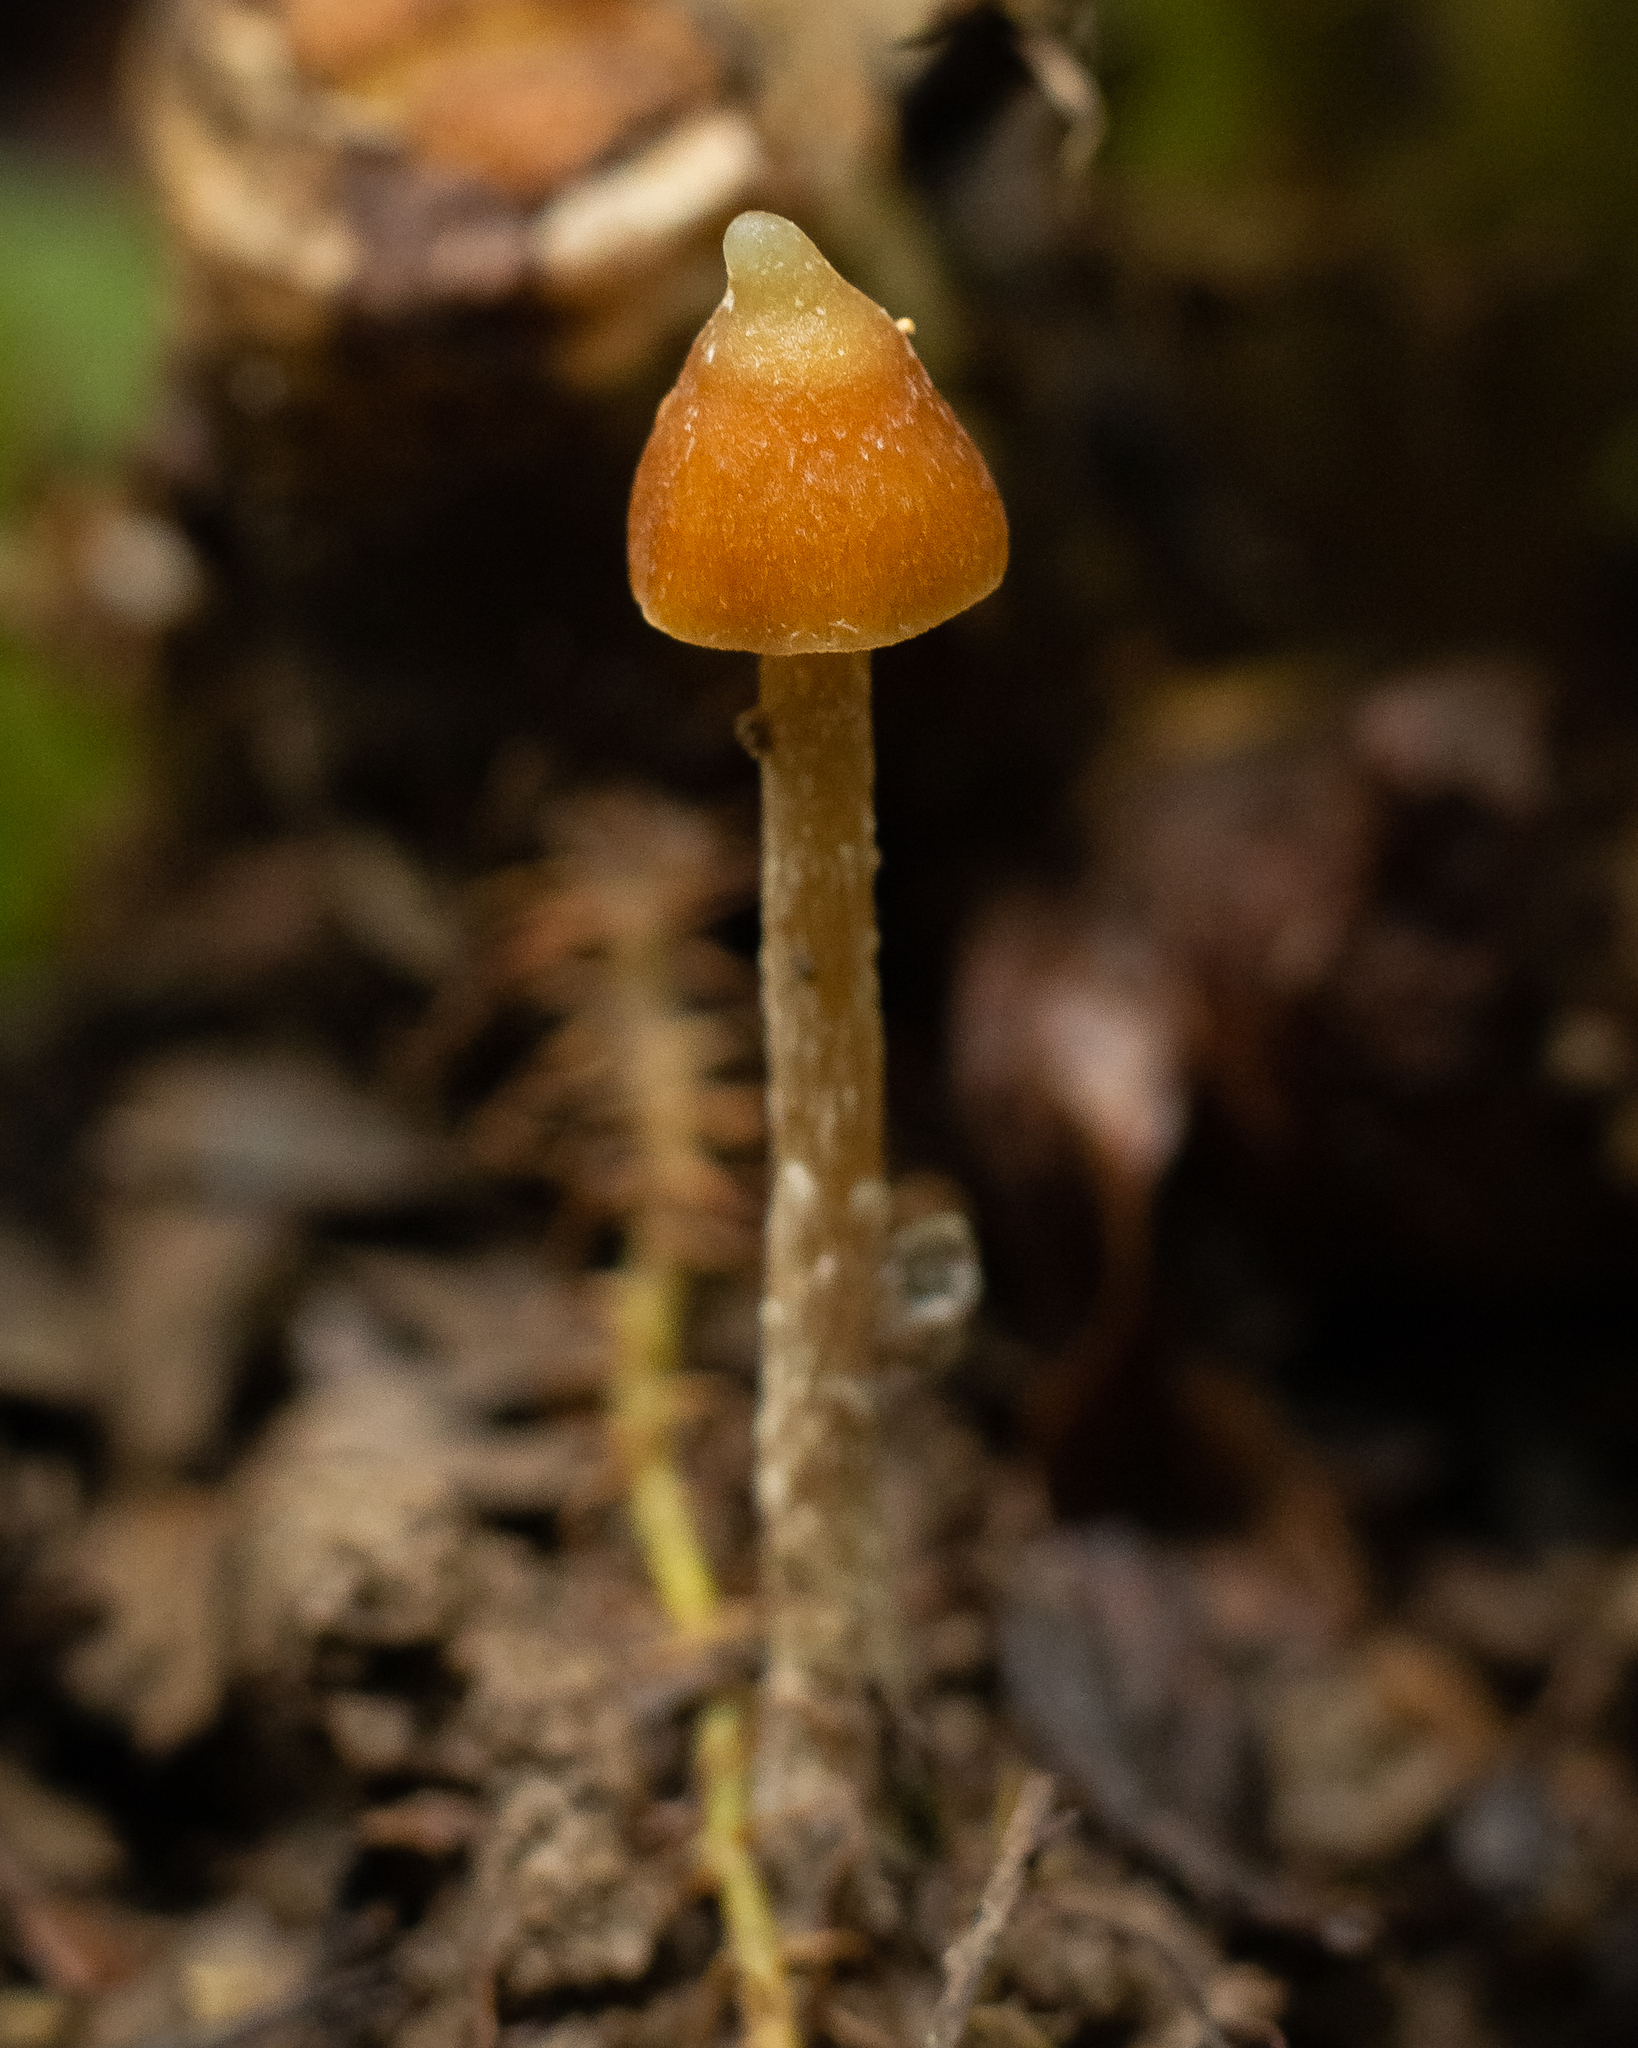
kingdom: Fungi
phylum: Basidiomycota
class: Agaricomycetes
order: Agaricales
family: Hymenogastraceae
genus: Psilocybe
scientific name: Psilocybe hoogshagenii
